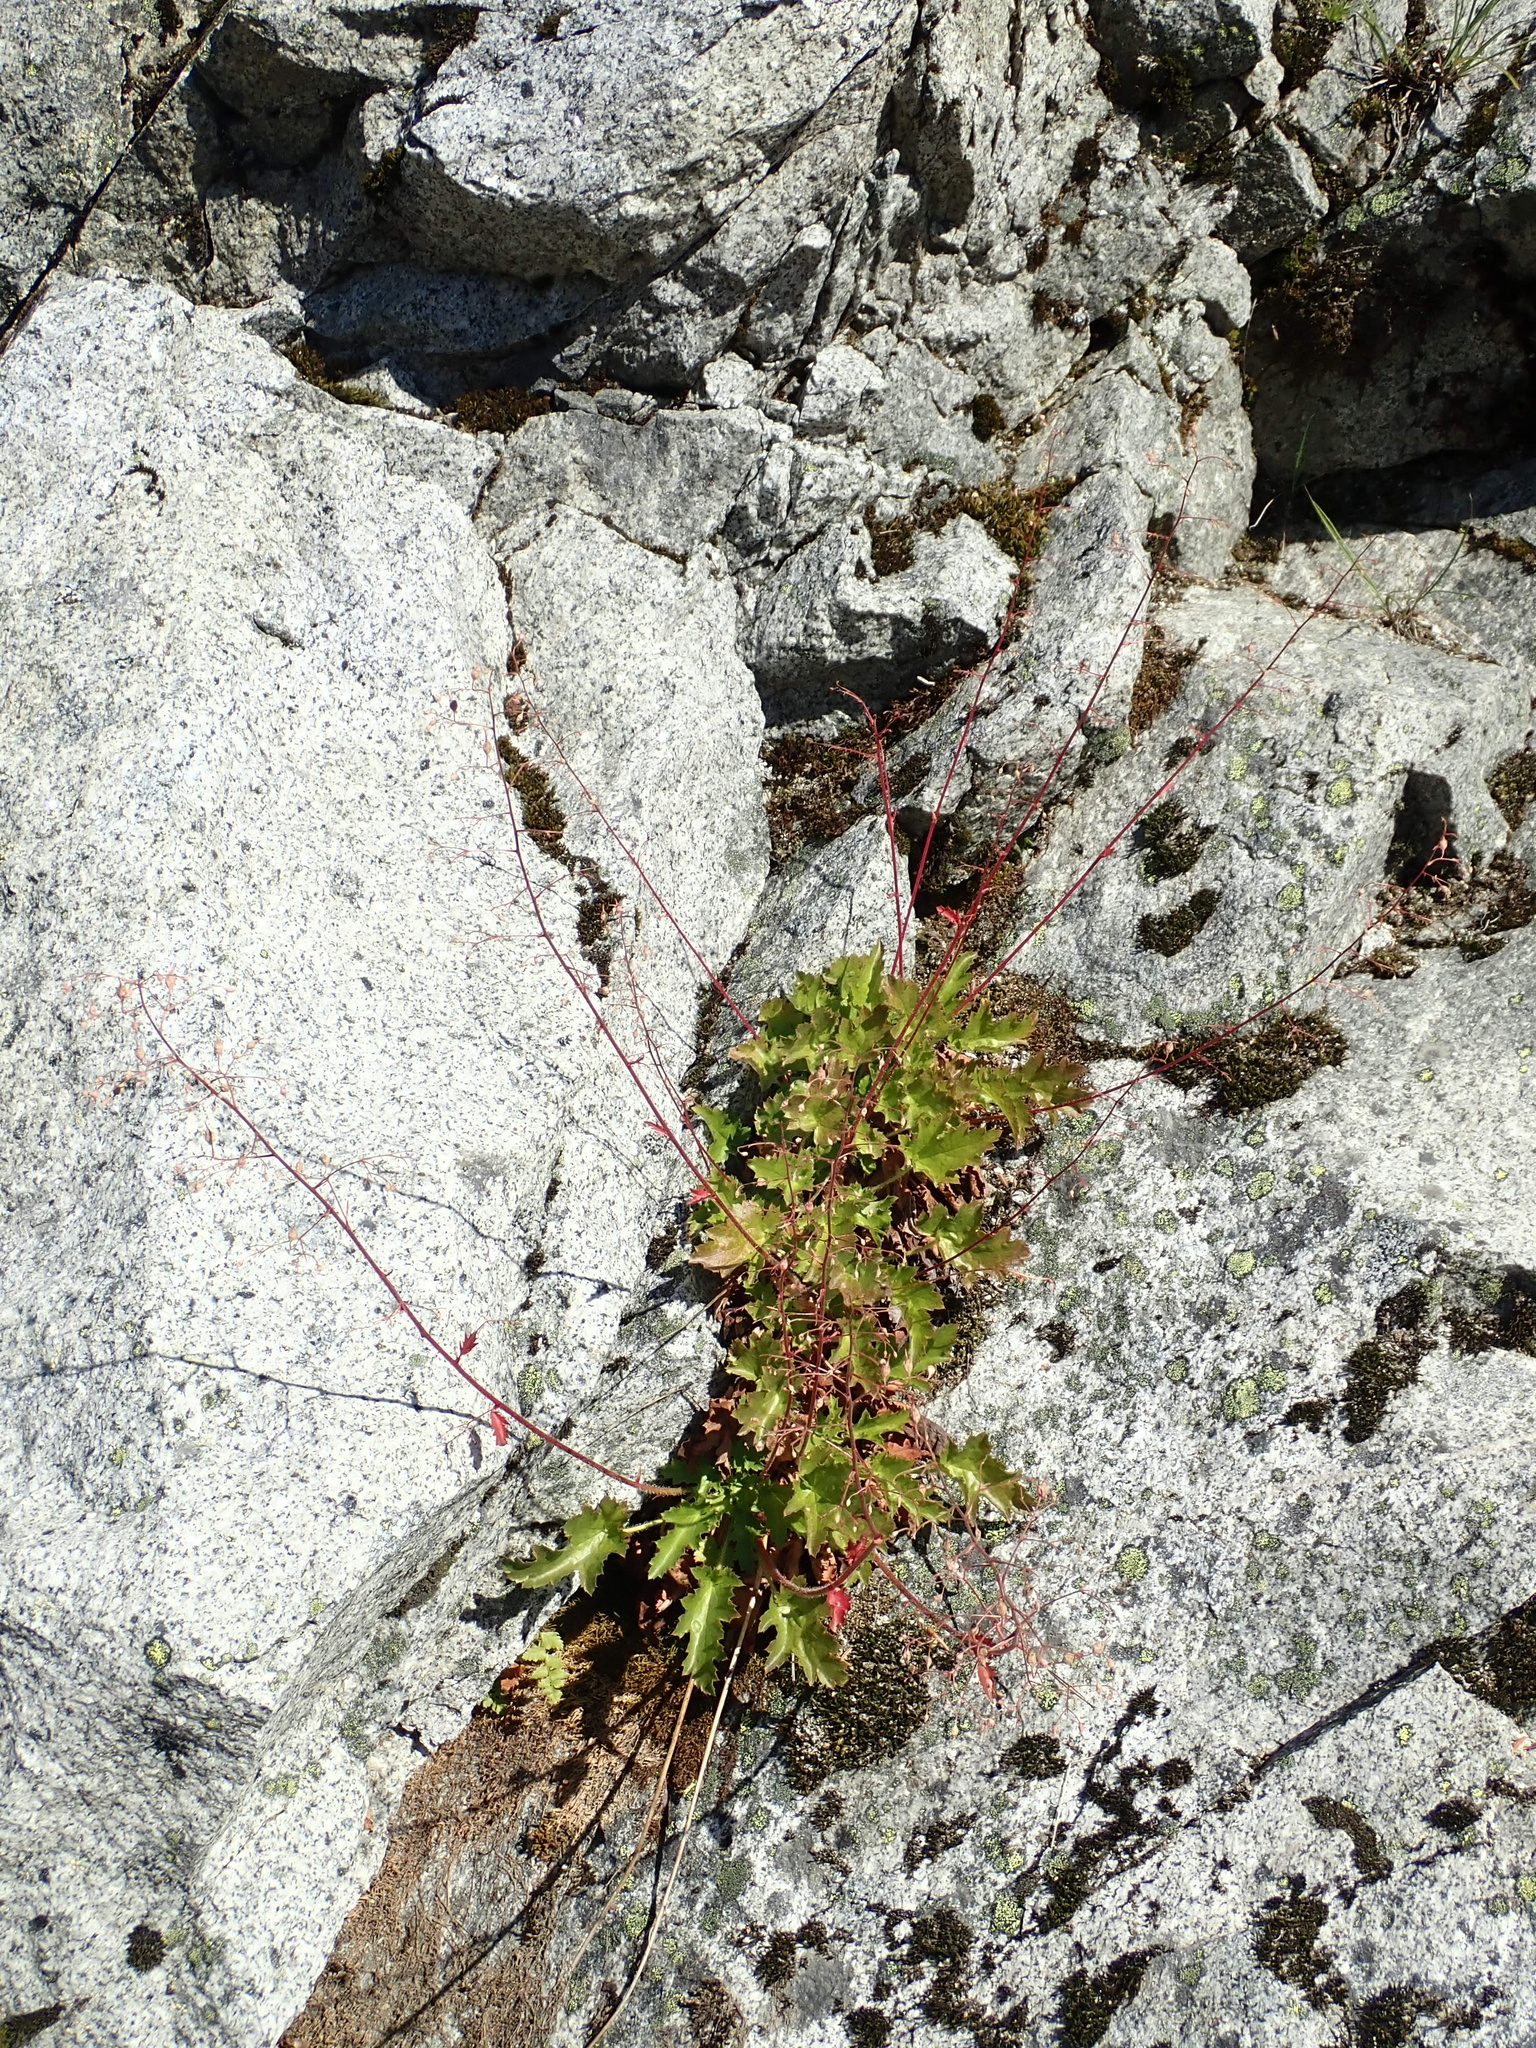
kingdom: Plantae
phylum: Tracheophyta
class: Magnoliopsida
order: Saxifragales
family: Saxifragaceae
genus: Heuchera
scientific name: Heuchera micrantha
